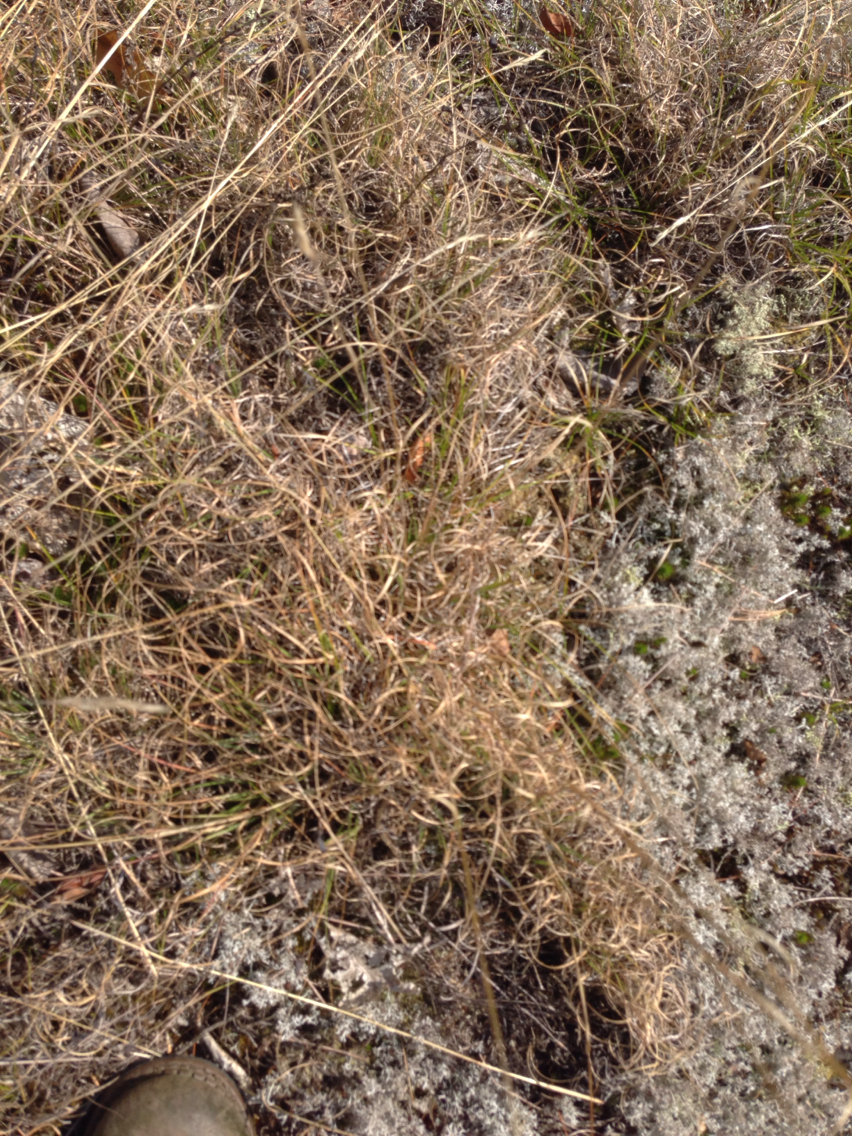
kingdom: Plantae
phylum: Tracheophyta
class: Liliopsida
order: Poales
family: Poaceae
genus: Danthonia
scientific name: Danthonia spicata
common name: Common wild oatgrass
